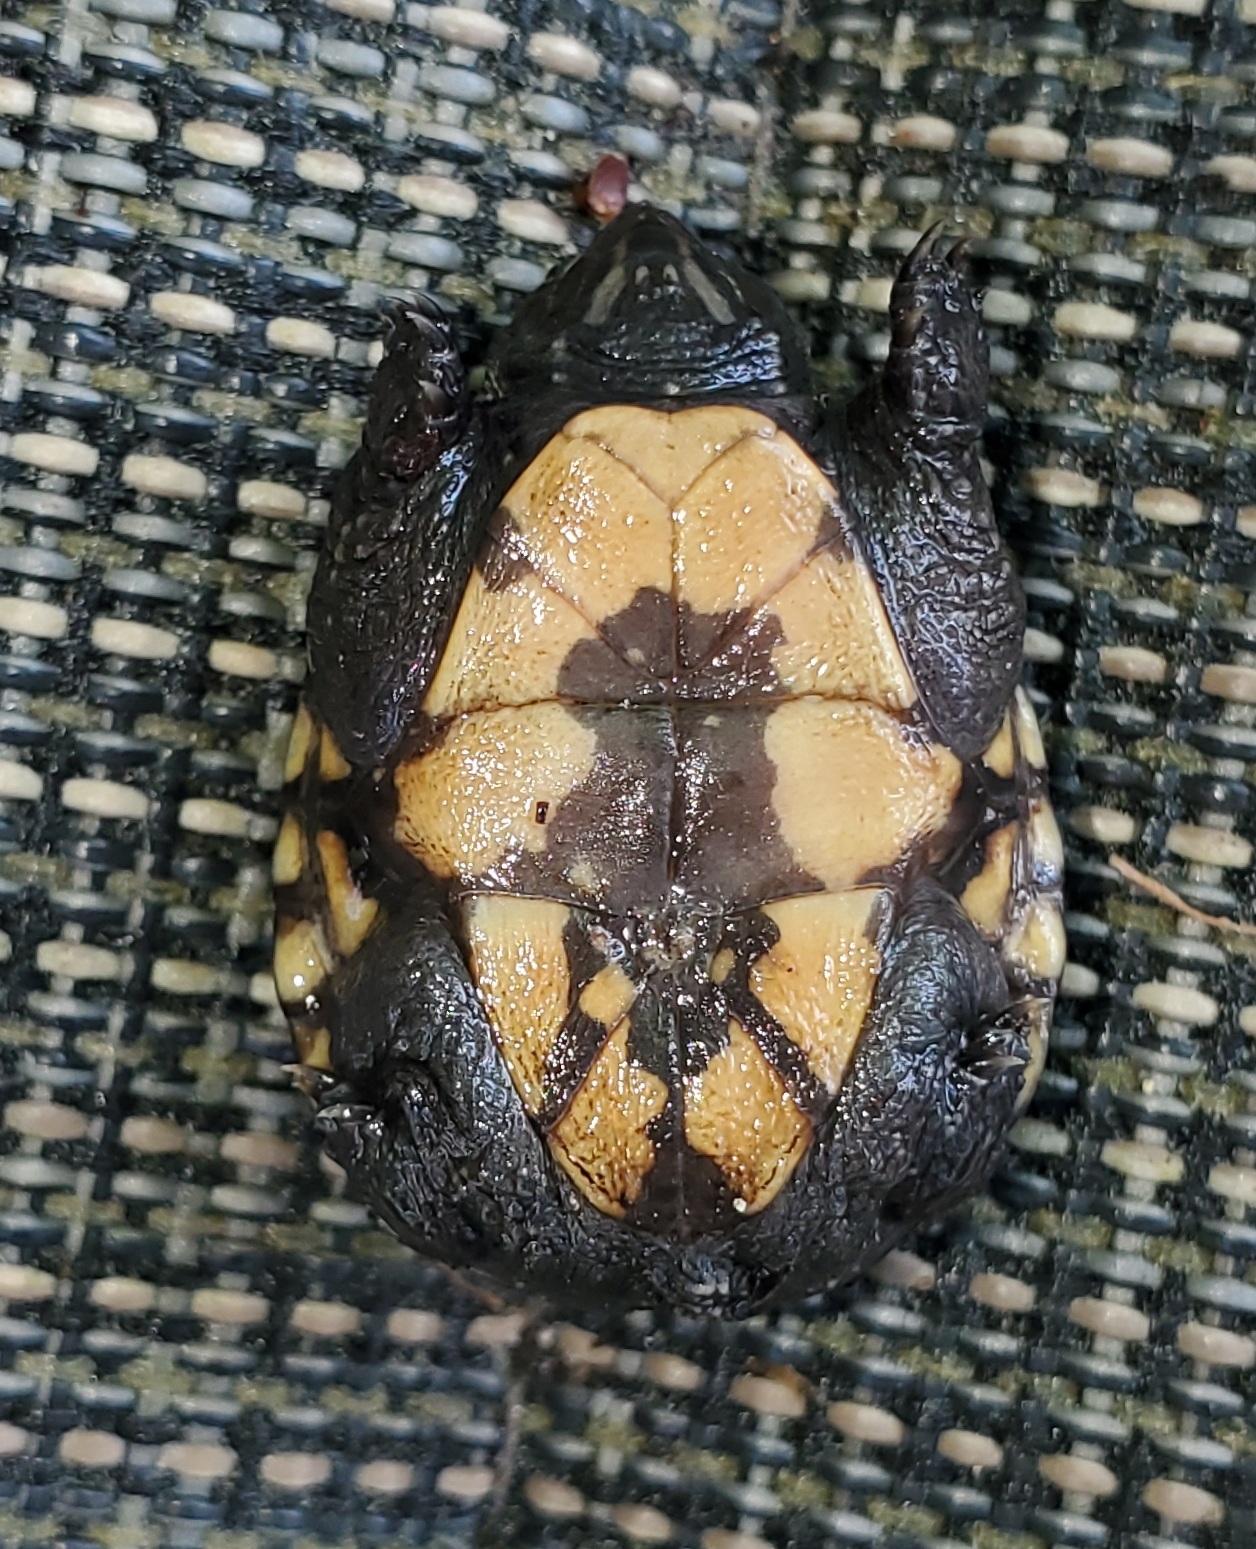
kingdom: Animalia
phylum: Chordata
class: Testudines
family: Kinosternidae
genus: Kinosternon
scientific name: Kinosternon baurii
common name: Striped mud turtle
